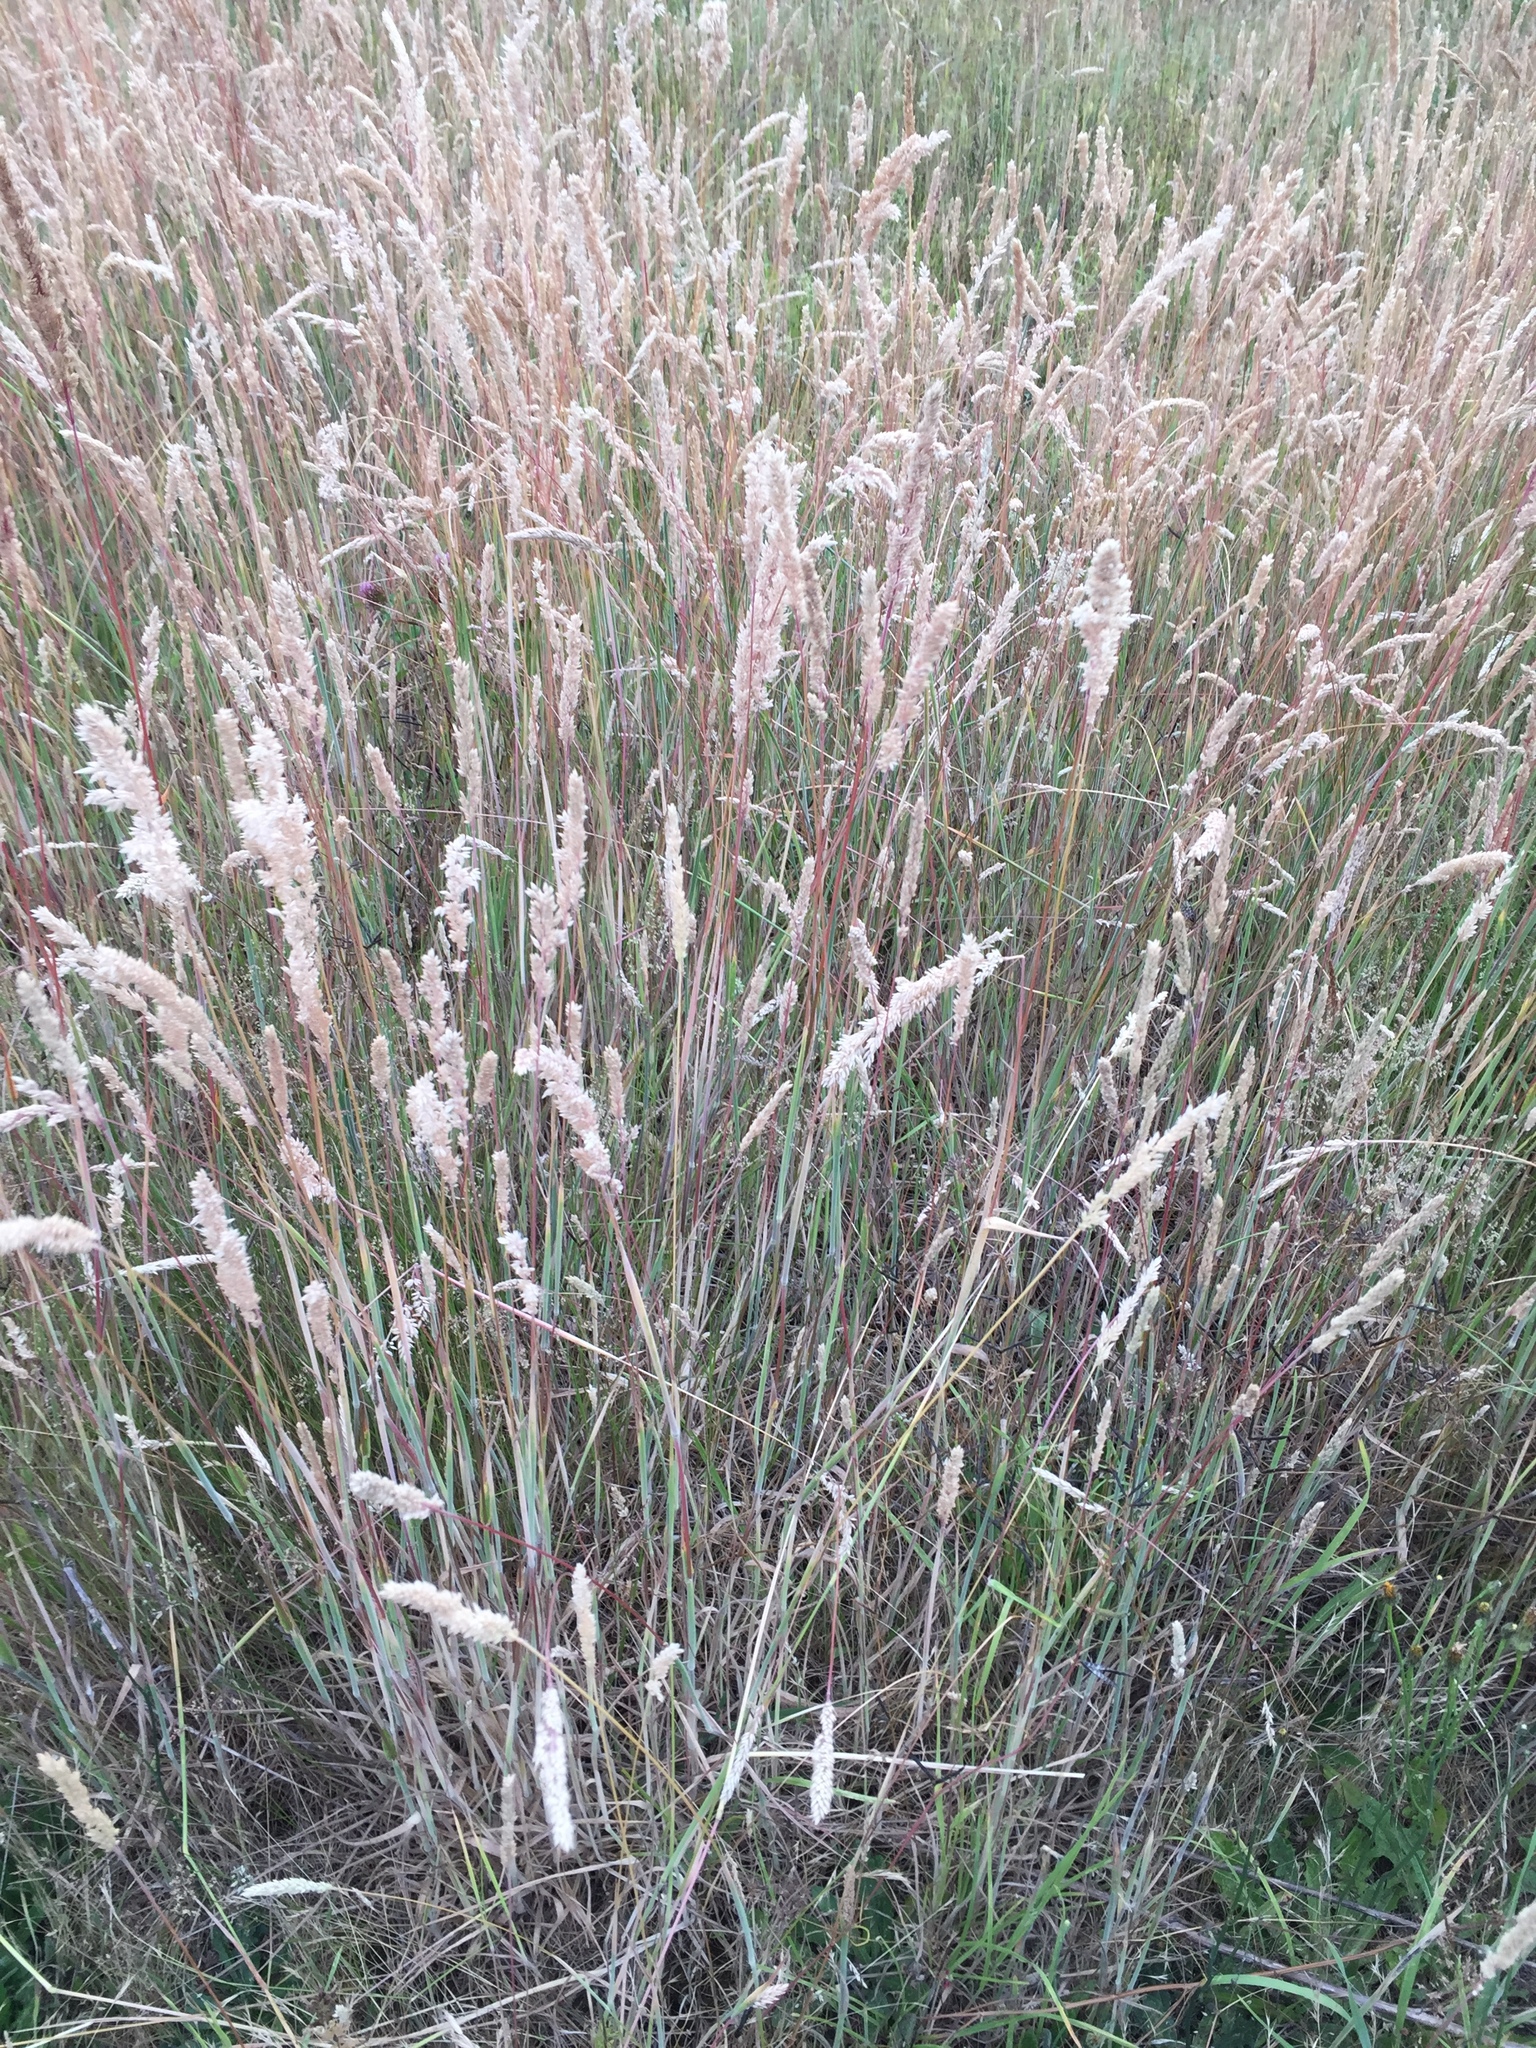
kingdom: Plantae
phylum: Tracheophyta
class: Liliopsida
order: Poales
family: Poaceae
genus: Holcus
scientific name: Holcus lanatus
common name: Yorkshire-fog
